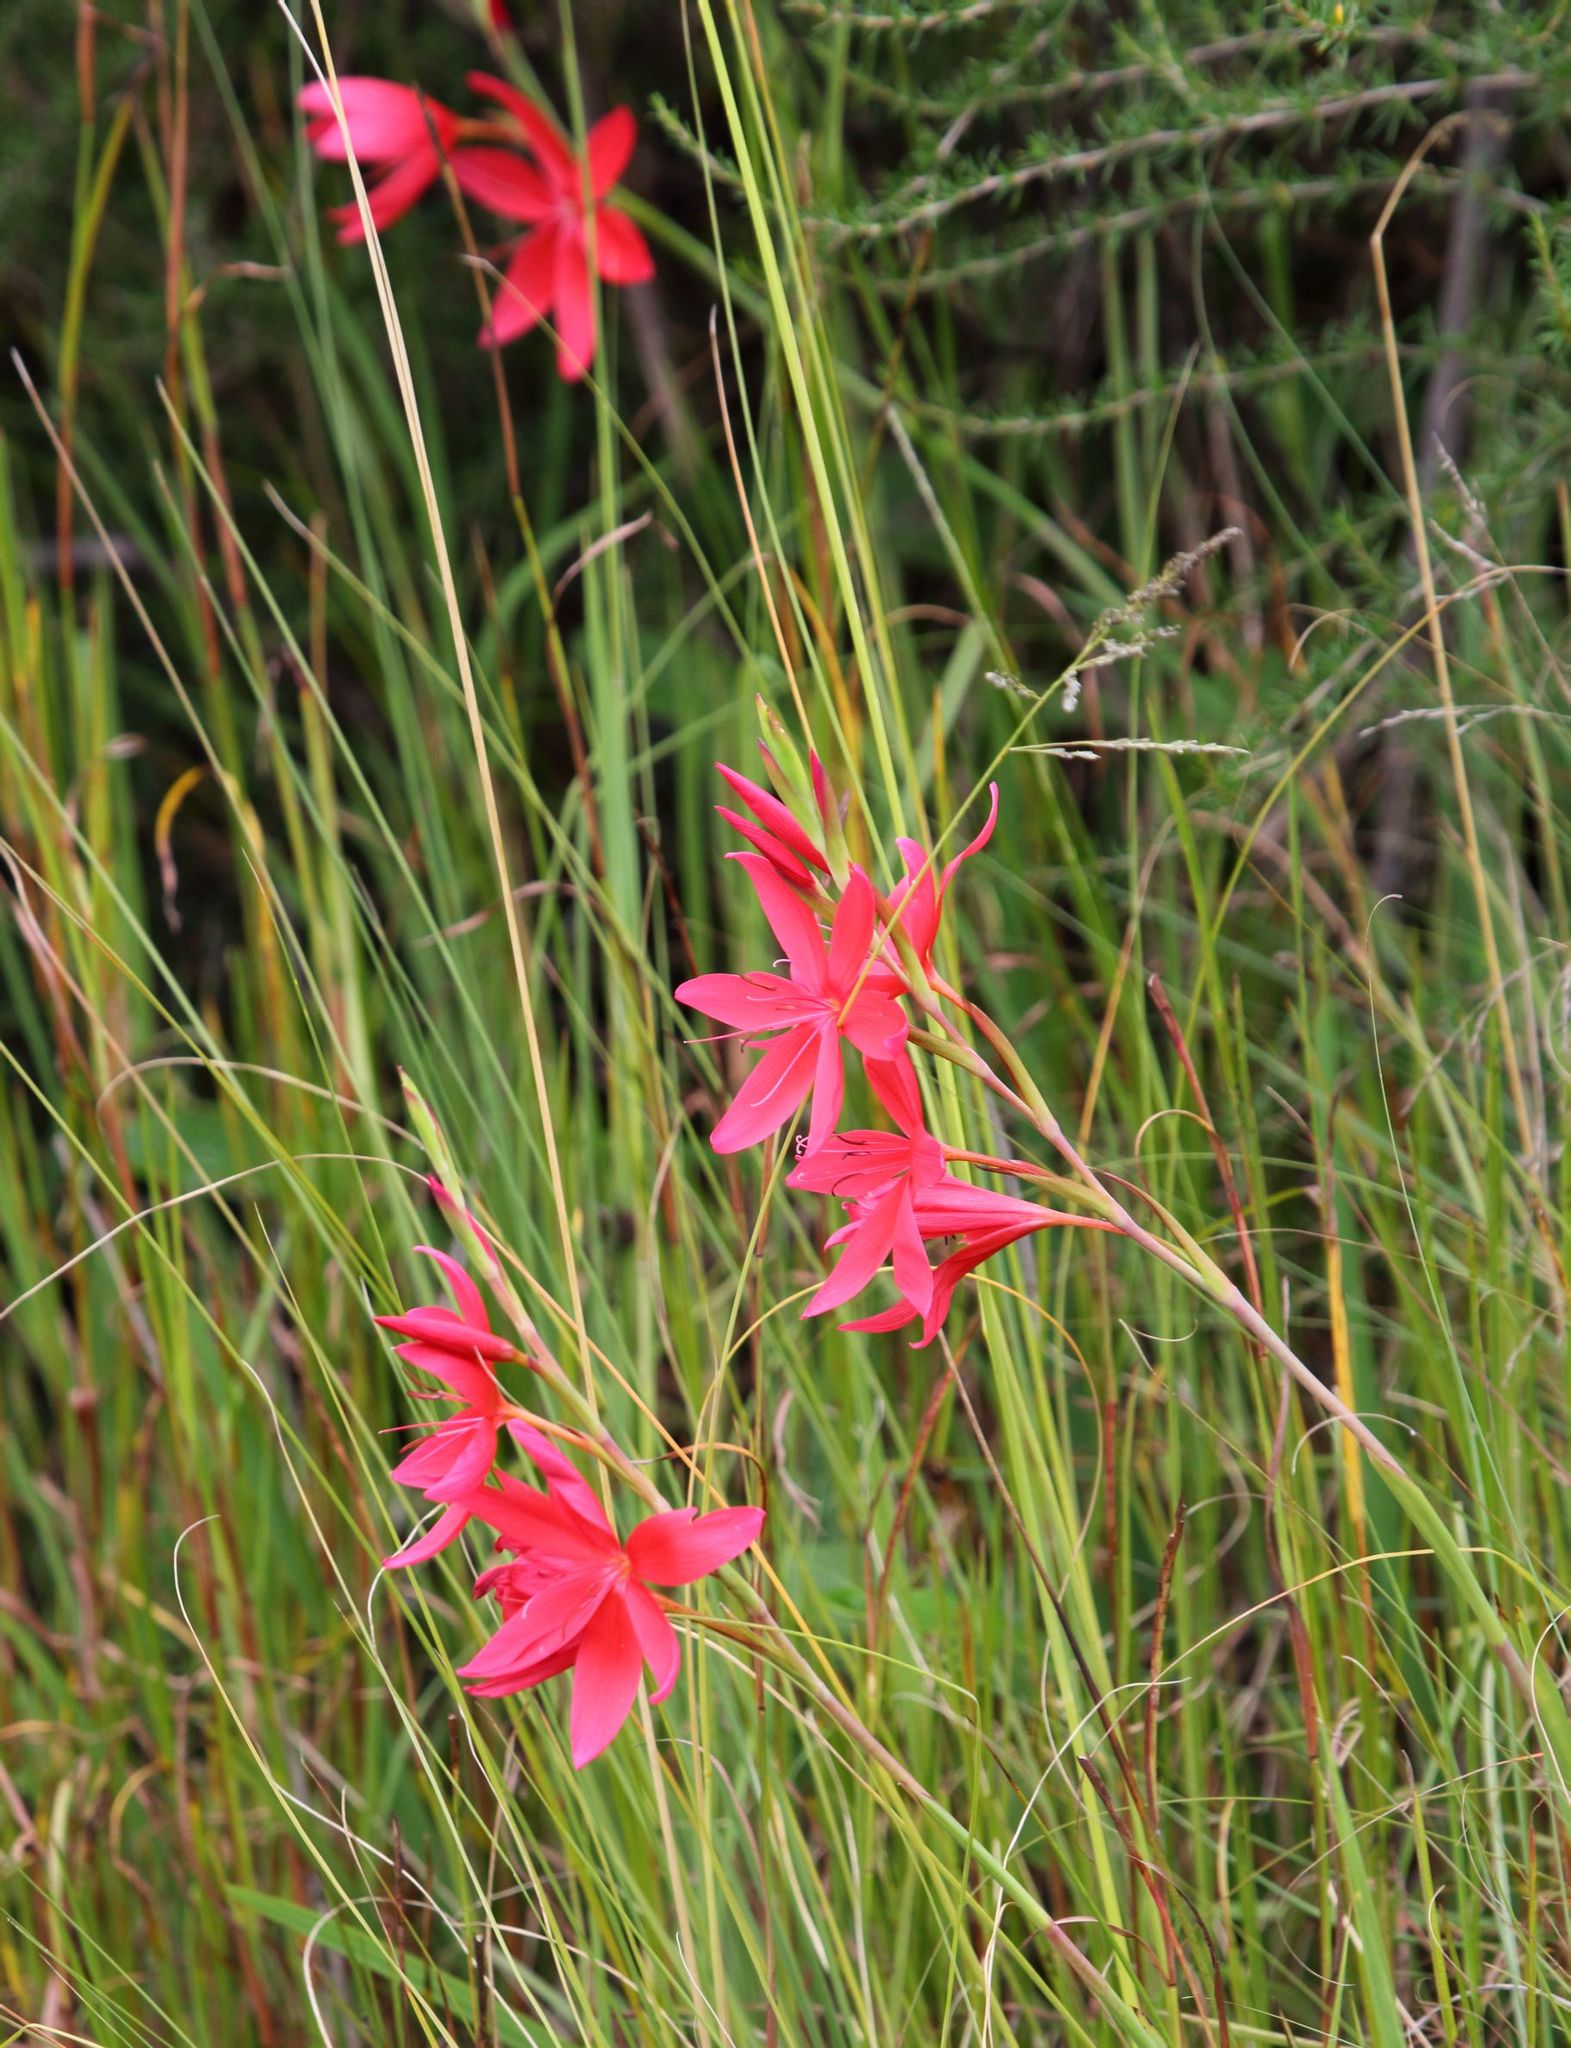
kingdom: Plantae
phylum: Tracheophyta
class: Liliopsida
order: Asparagales
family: Iridaceae
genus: Hesperantha
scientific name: Hesperantha coccinea
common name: River-lily
